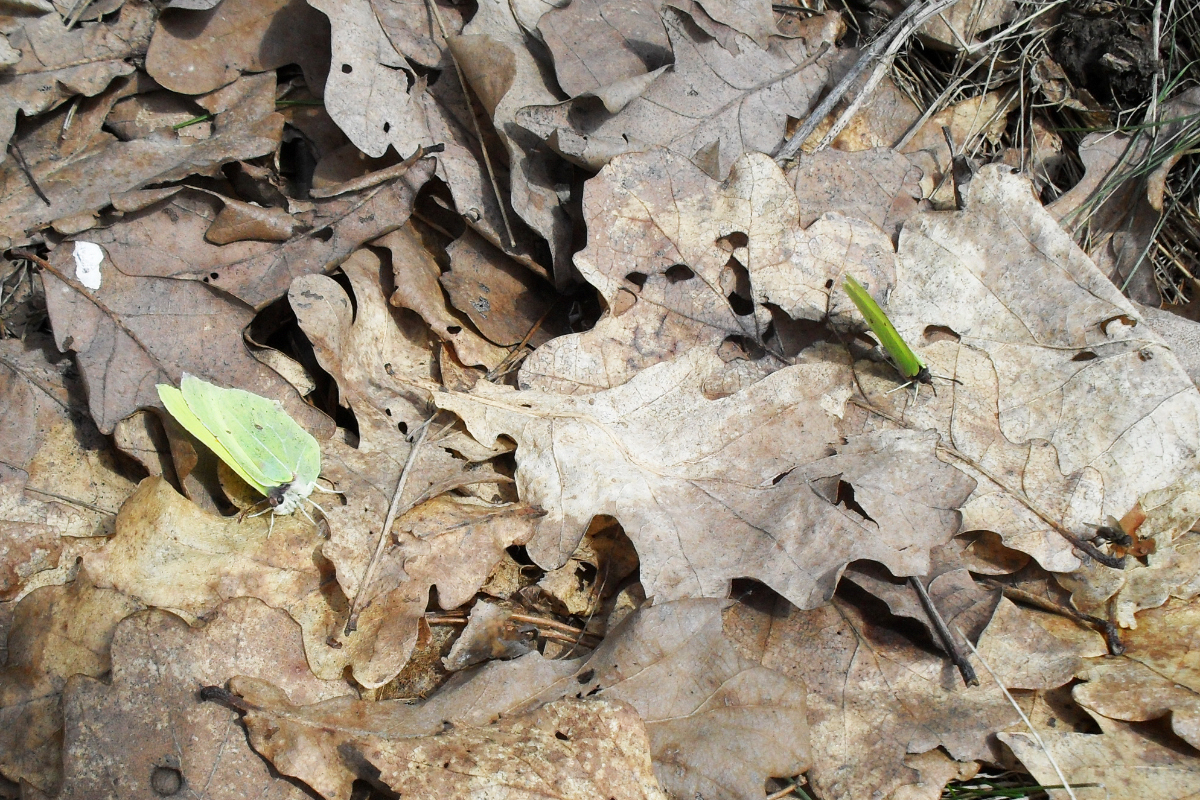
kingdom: Animalia
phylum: Arthropoda
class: Insecta
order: Lepidoptera
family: Pieridae
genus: Gonepteryx
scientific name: Gonepteryx rhamni
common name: Brimstone
